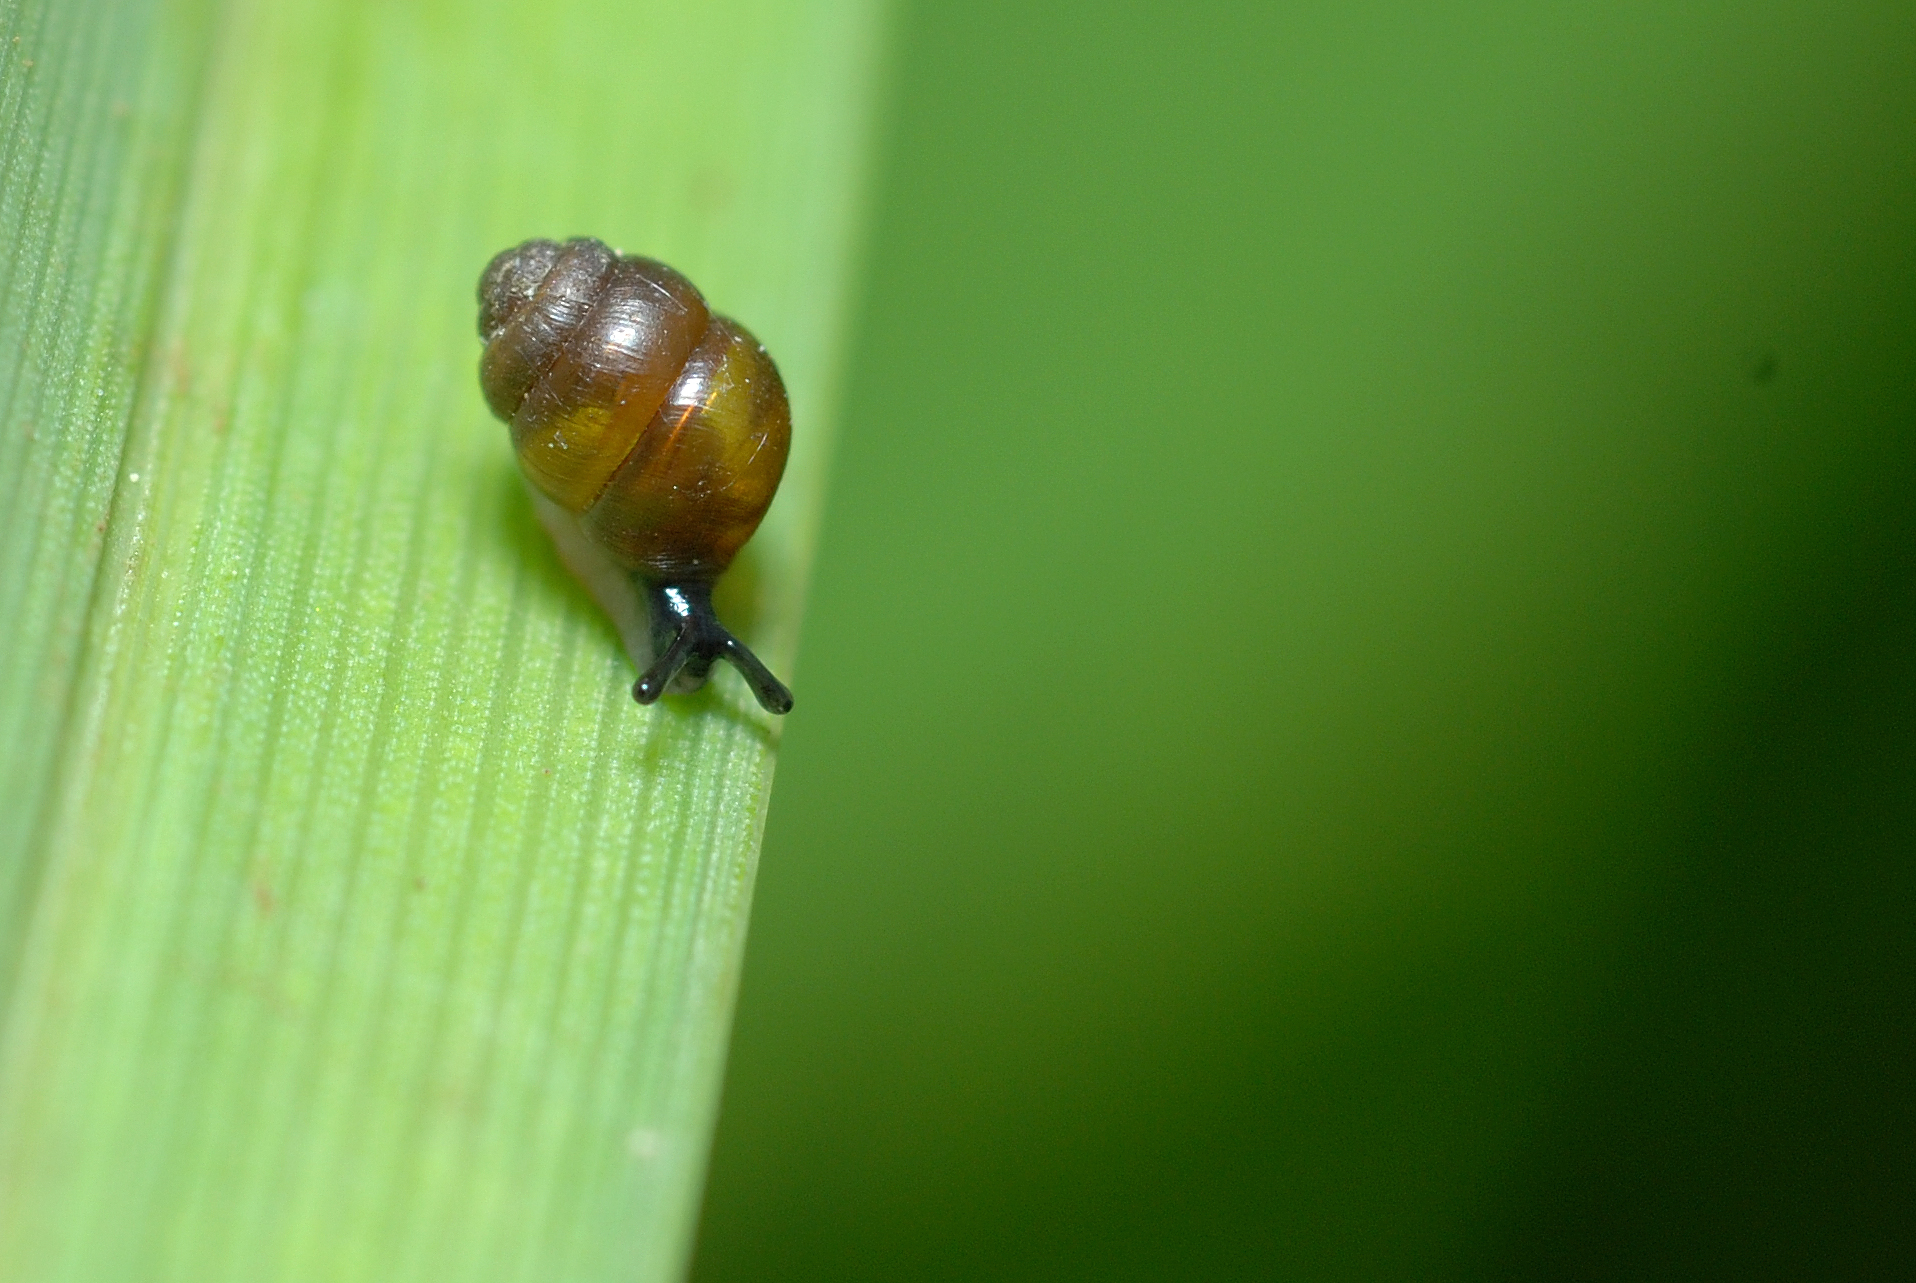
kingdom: Animalia
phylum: Mollusca
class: Gastropoda
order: Stylommatophora
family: Vertiginidae
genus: Vertigo
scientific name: Vertigo moulinsiana
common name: Desmoulin's whorl snail
